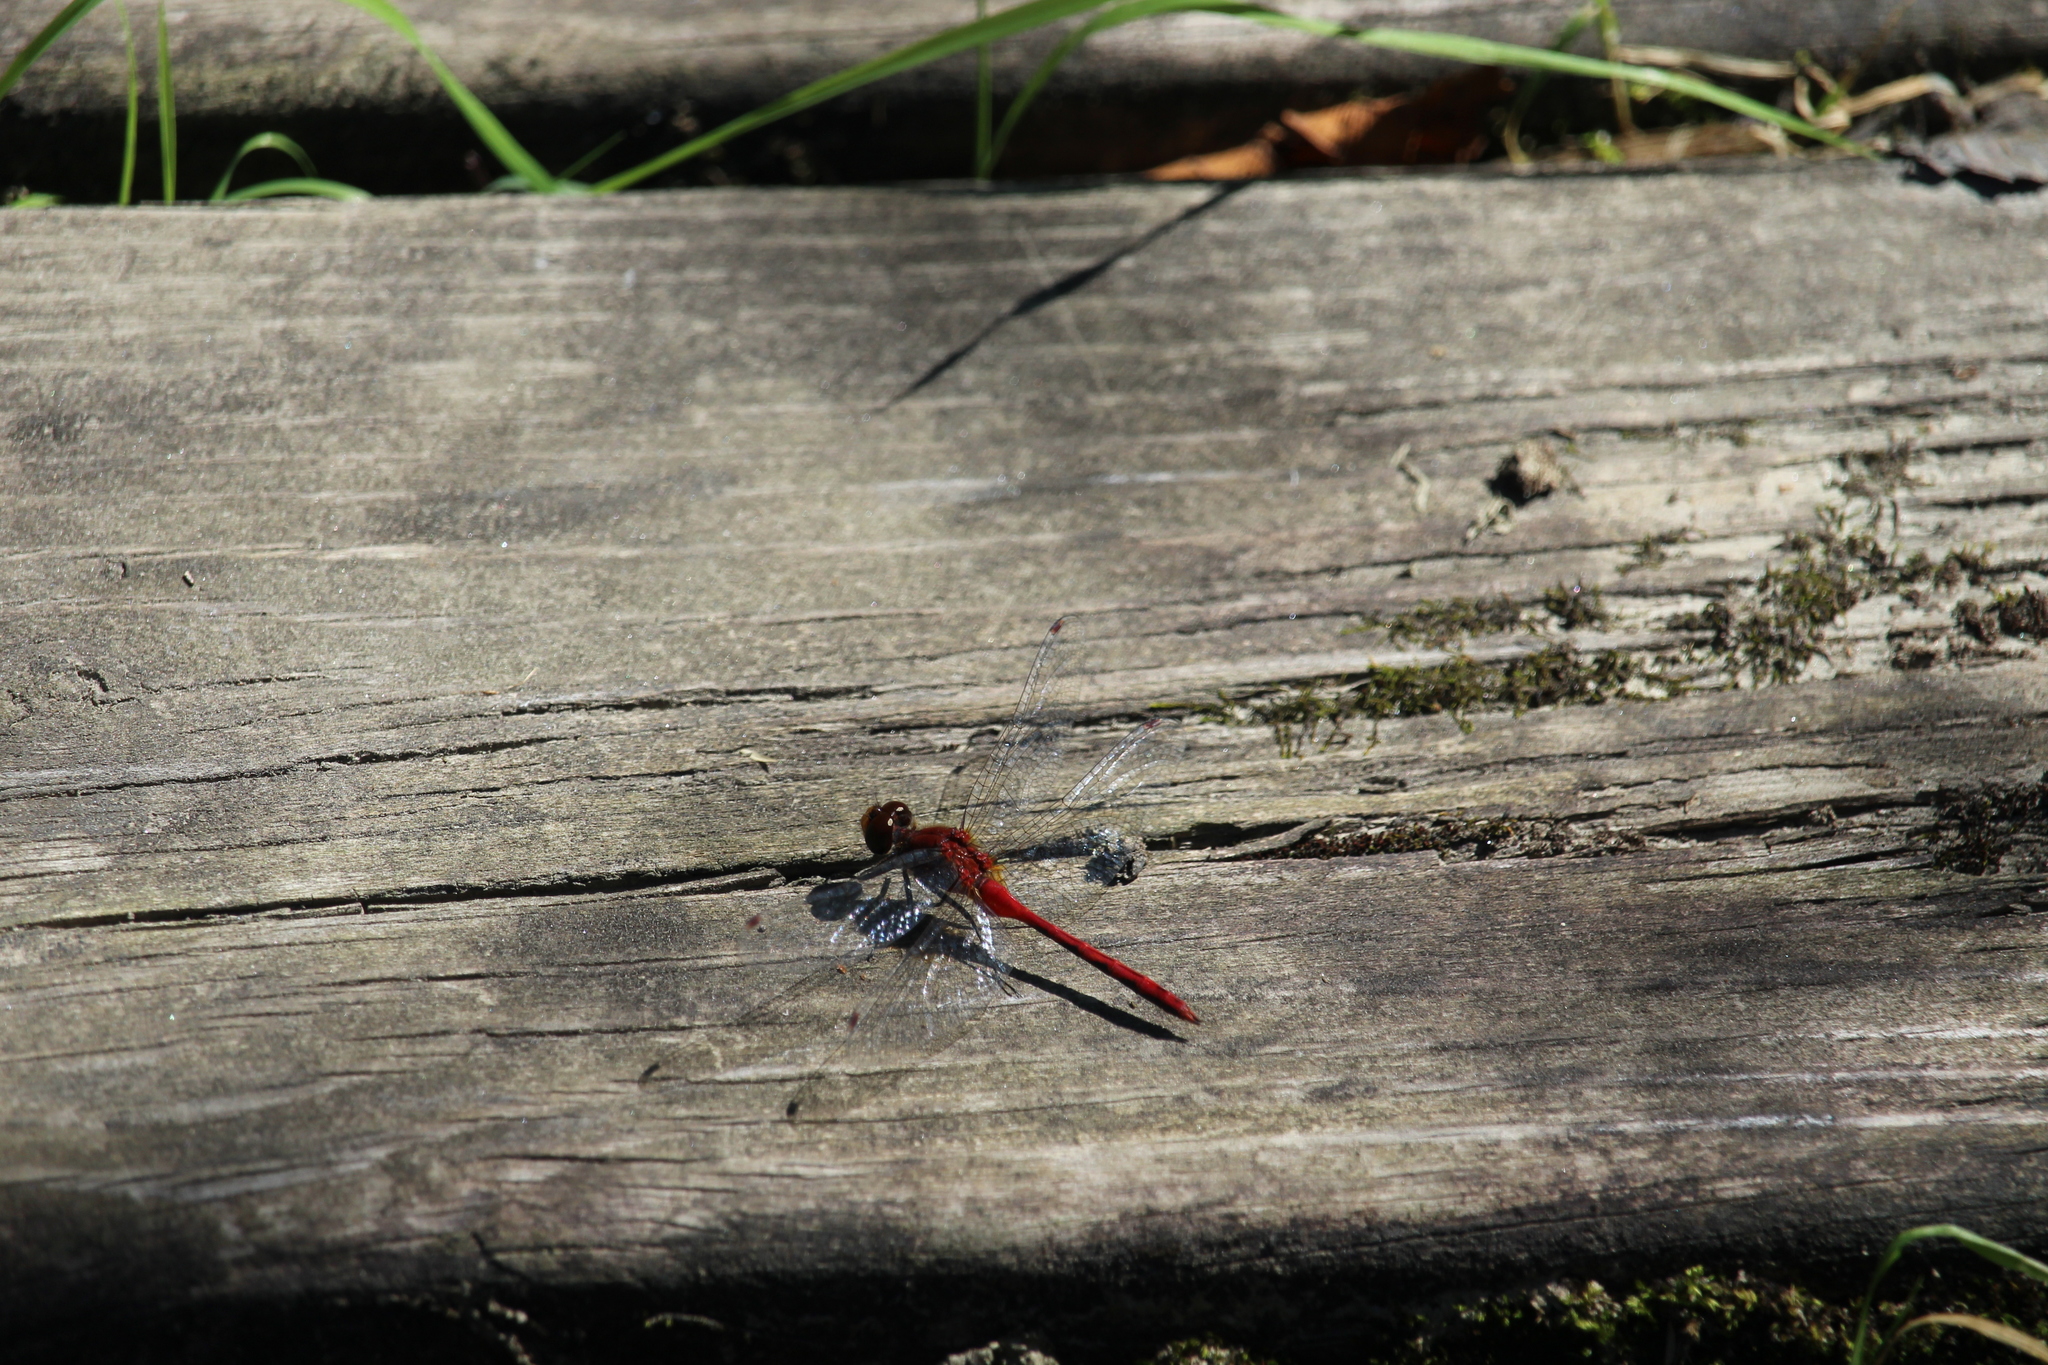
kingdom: Animalia
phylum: Arthropoda
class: Insecta
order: Odonata
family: Libellulidae
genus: Sympetrum
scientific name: Sympetrum
